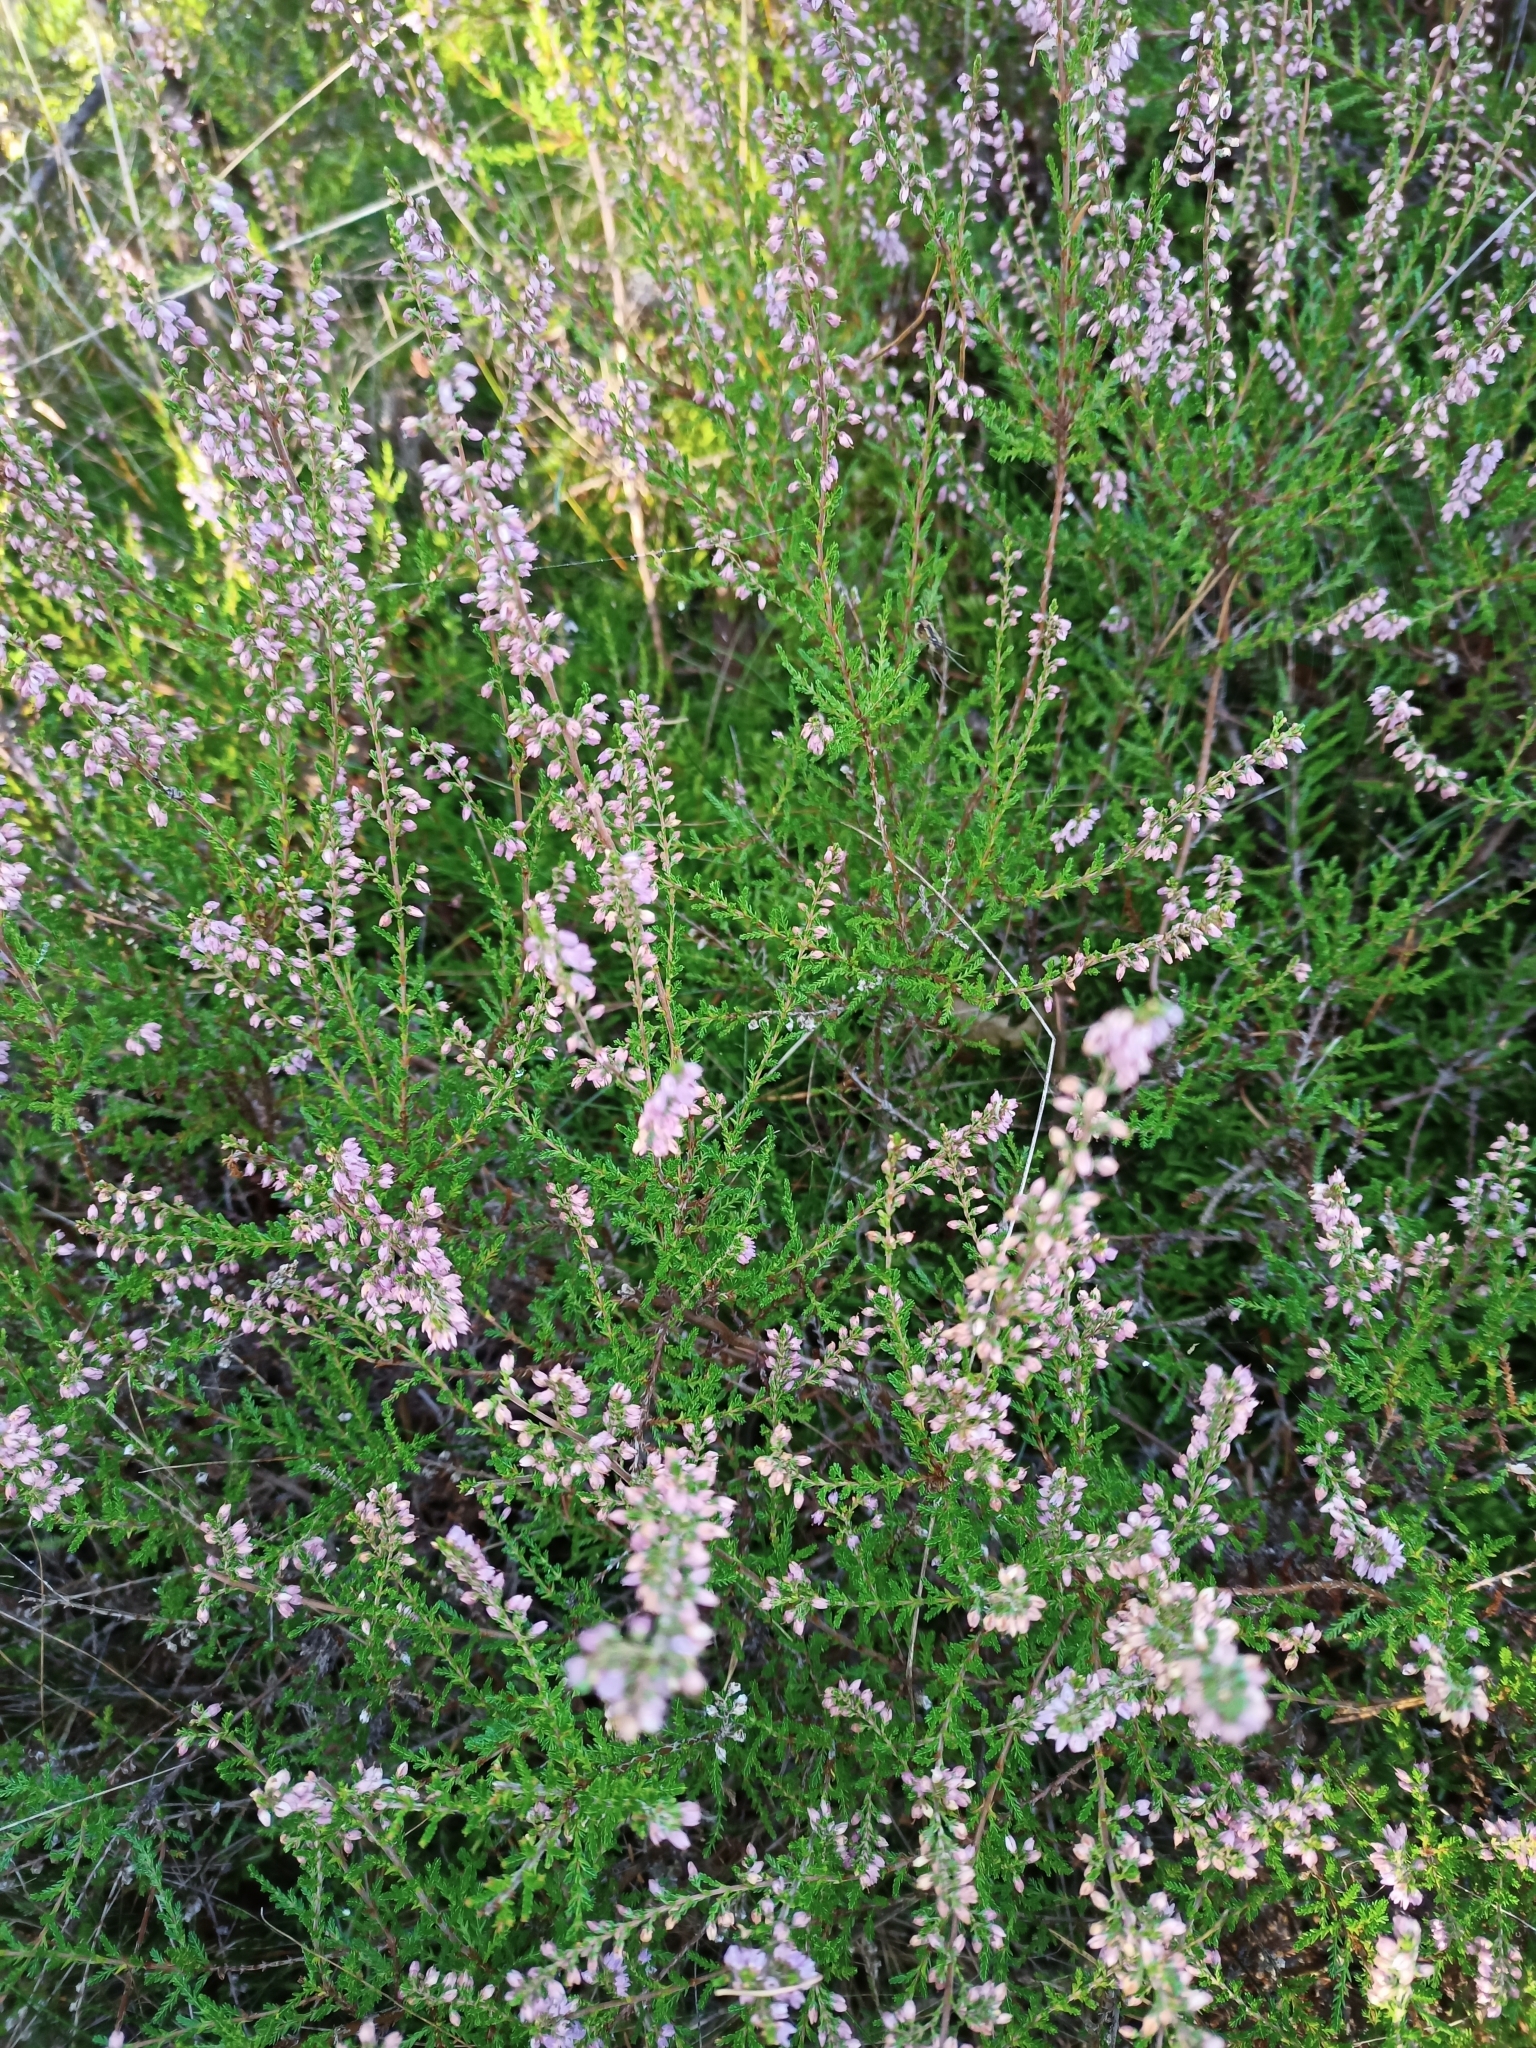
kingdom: Plantae
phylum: Tracheophyta
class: Magnoliopsida
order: Ericales
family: Ericaceae
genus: Calluna
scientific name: Calluna vulgaris
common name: Heather
